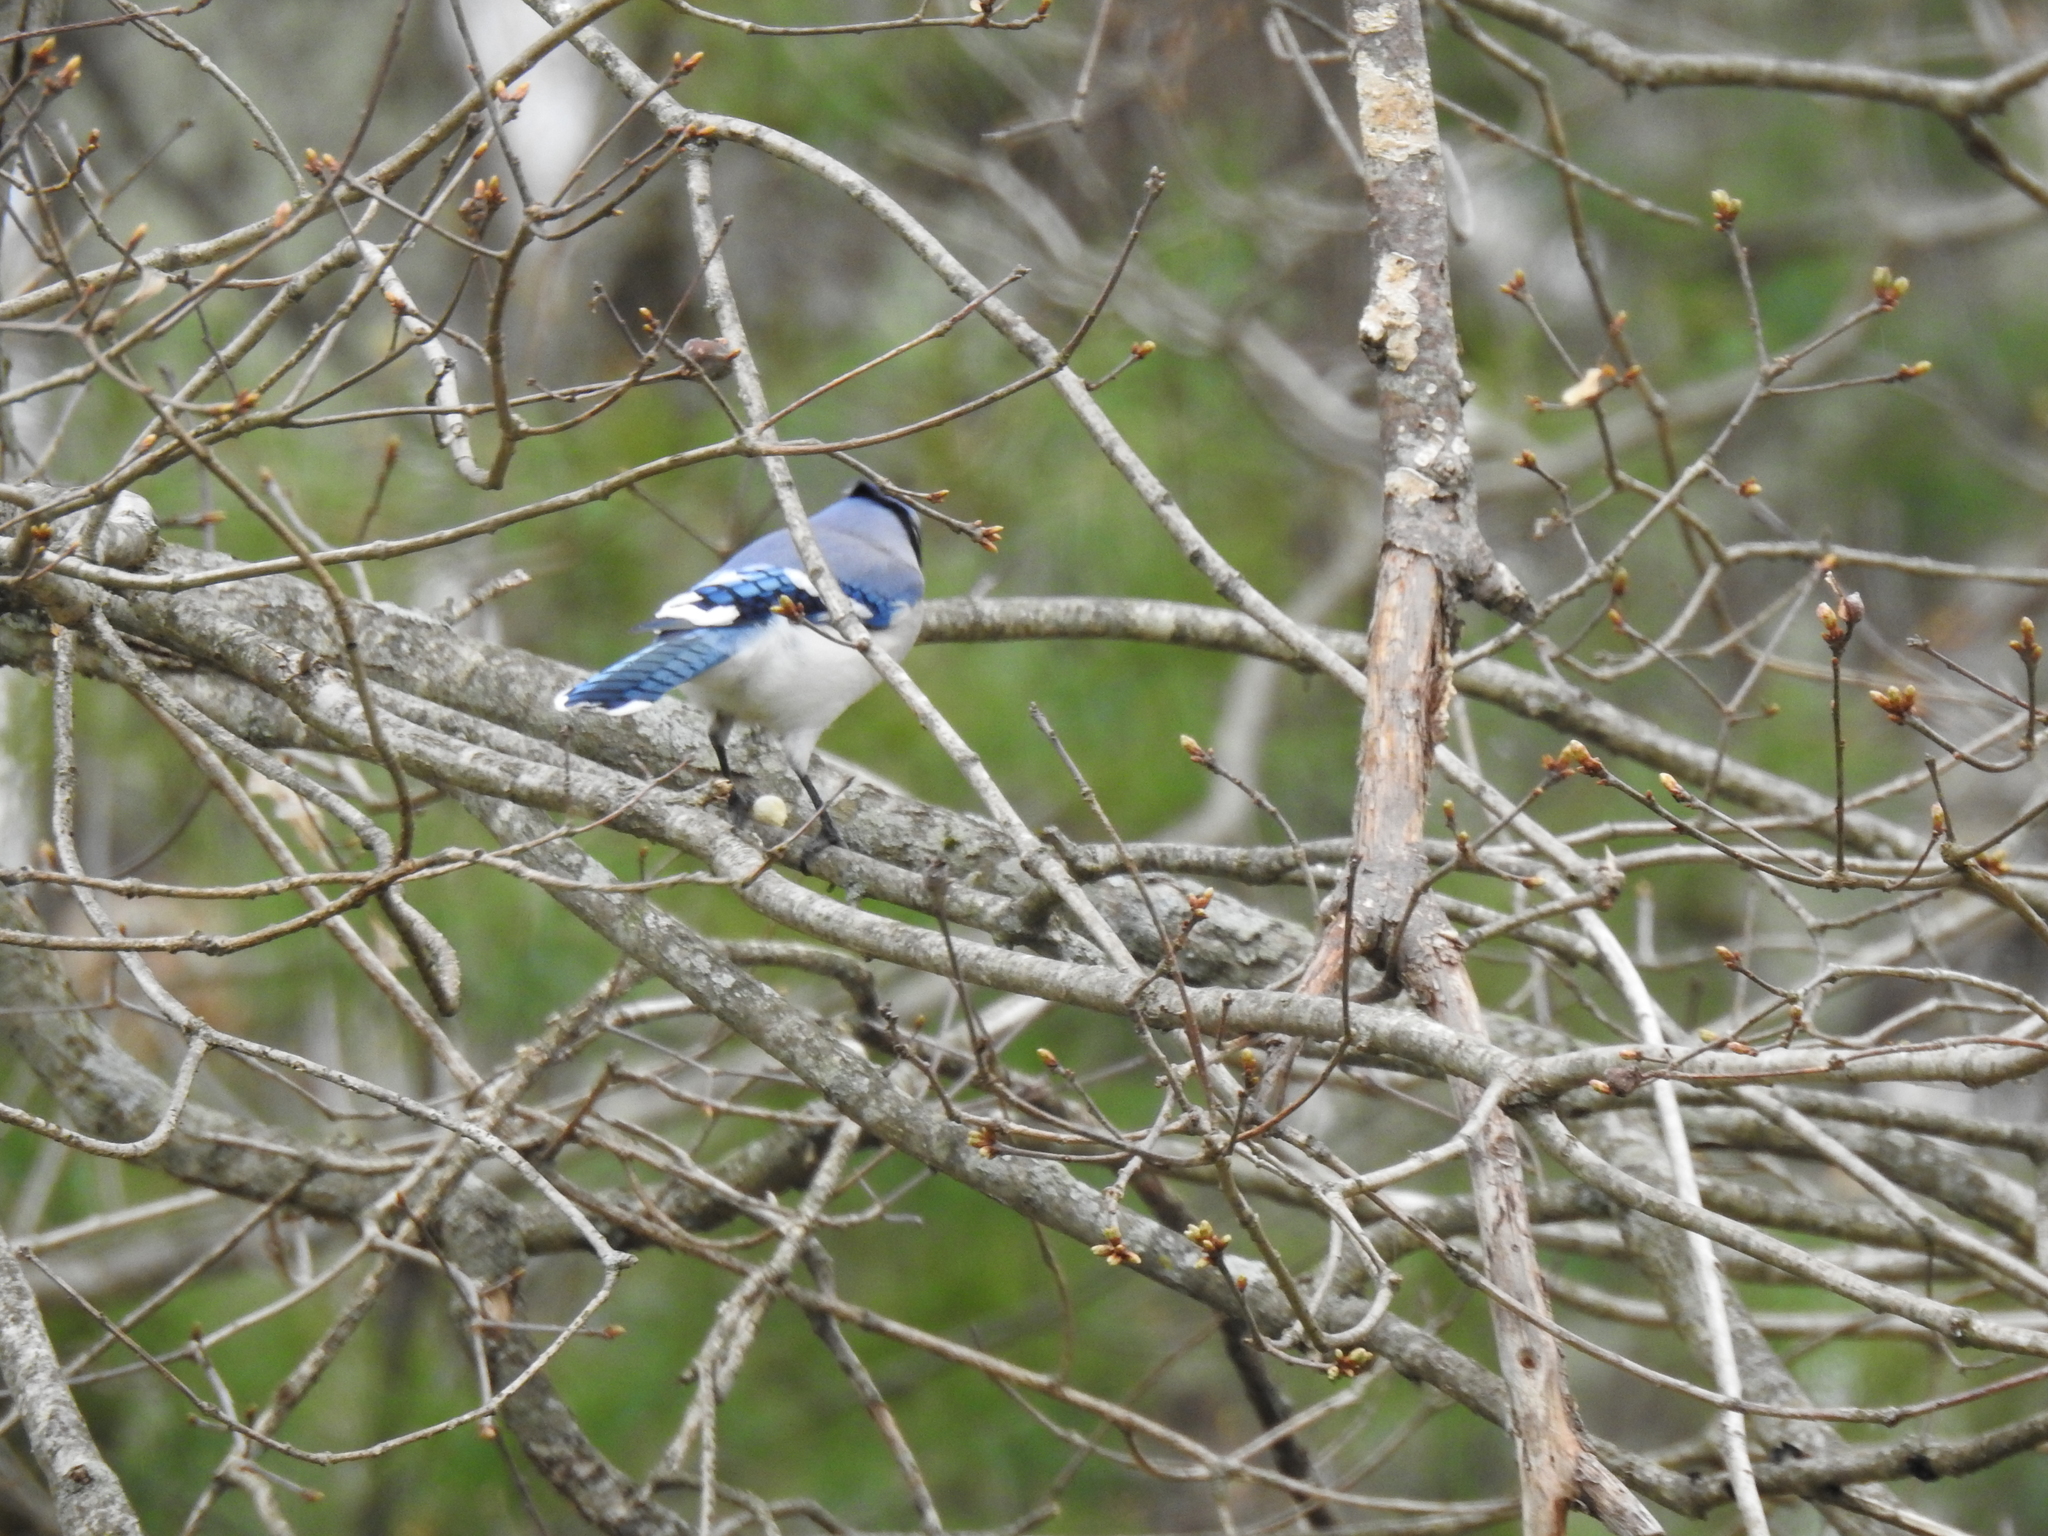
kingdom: Animalia
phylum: Chordata
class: Aves
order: Passeriformes
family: Corvidae
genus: Cyanocitta
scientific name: Cyanocitta cristata
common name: Blue jay
